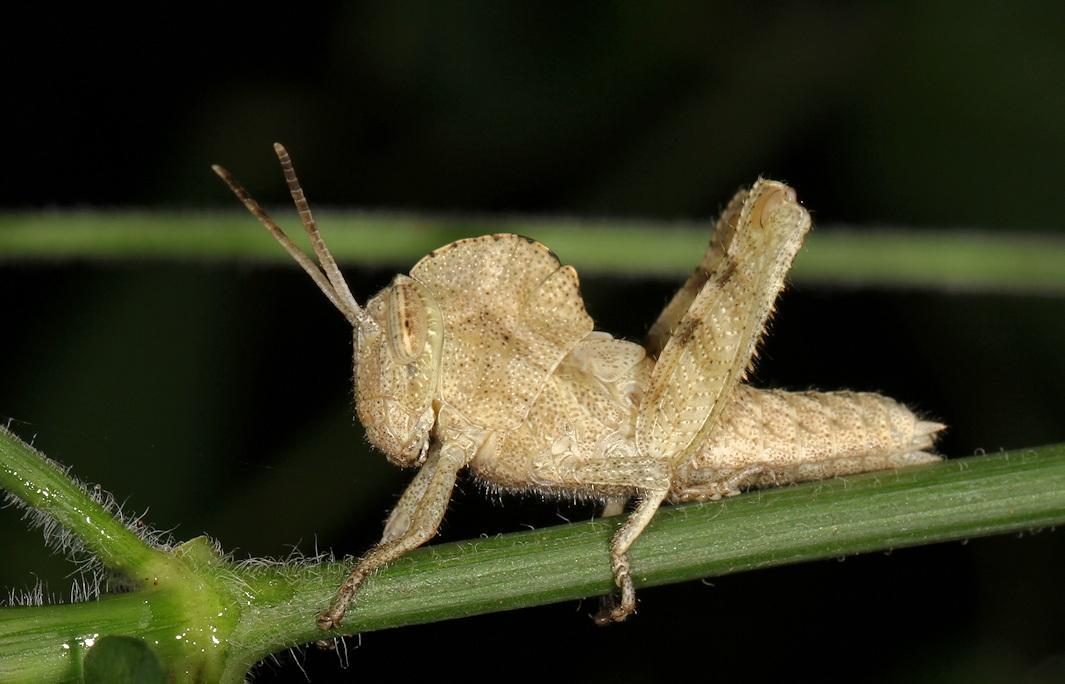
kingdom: Animalia
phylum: Arthropoda
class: Insecta
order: Orthoptera
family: Acrididae
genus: Abisares
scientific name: Abisares viridipenne
